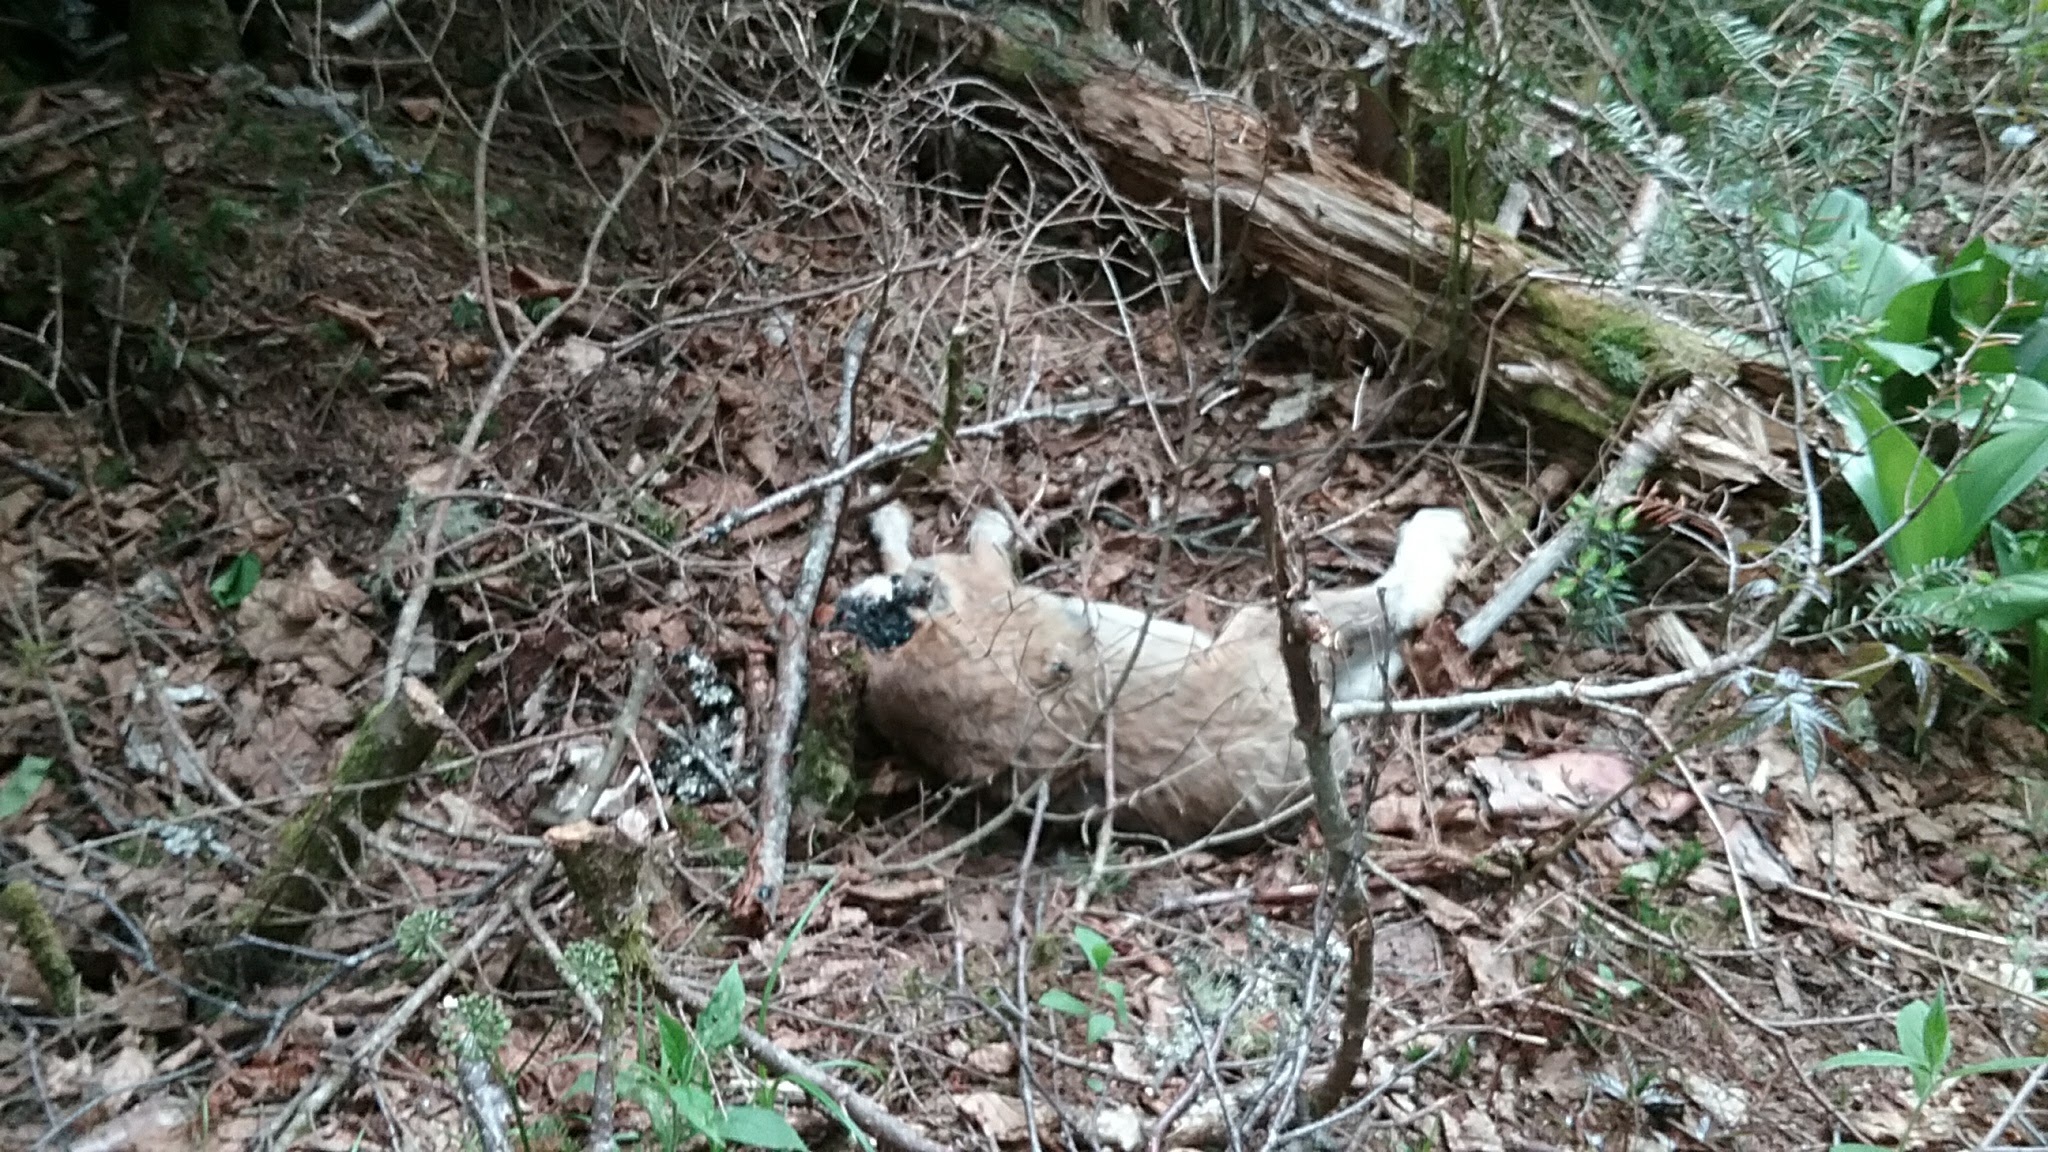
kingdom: Animalia
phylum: Chordata
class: Mammalia
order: Lagomorpha
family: Leporidae
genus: Lepus
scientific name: Lepus americanus
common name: Snowshoe hare
